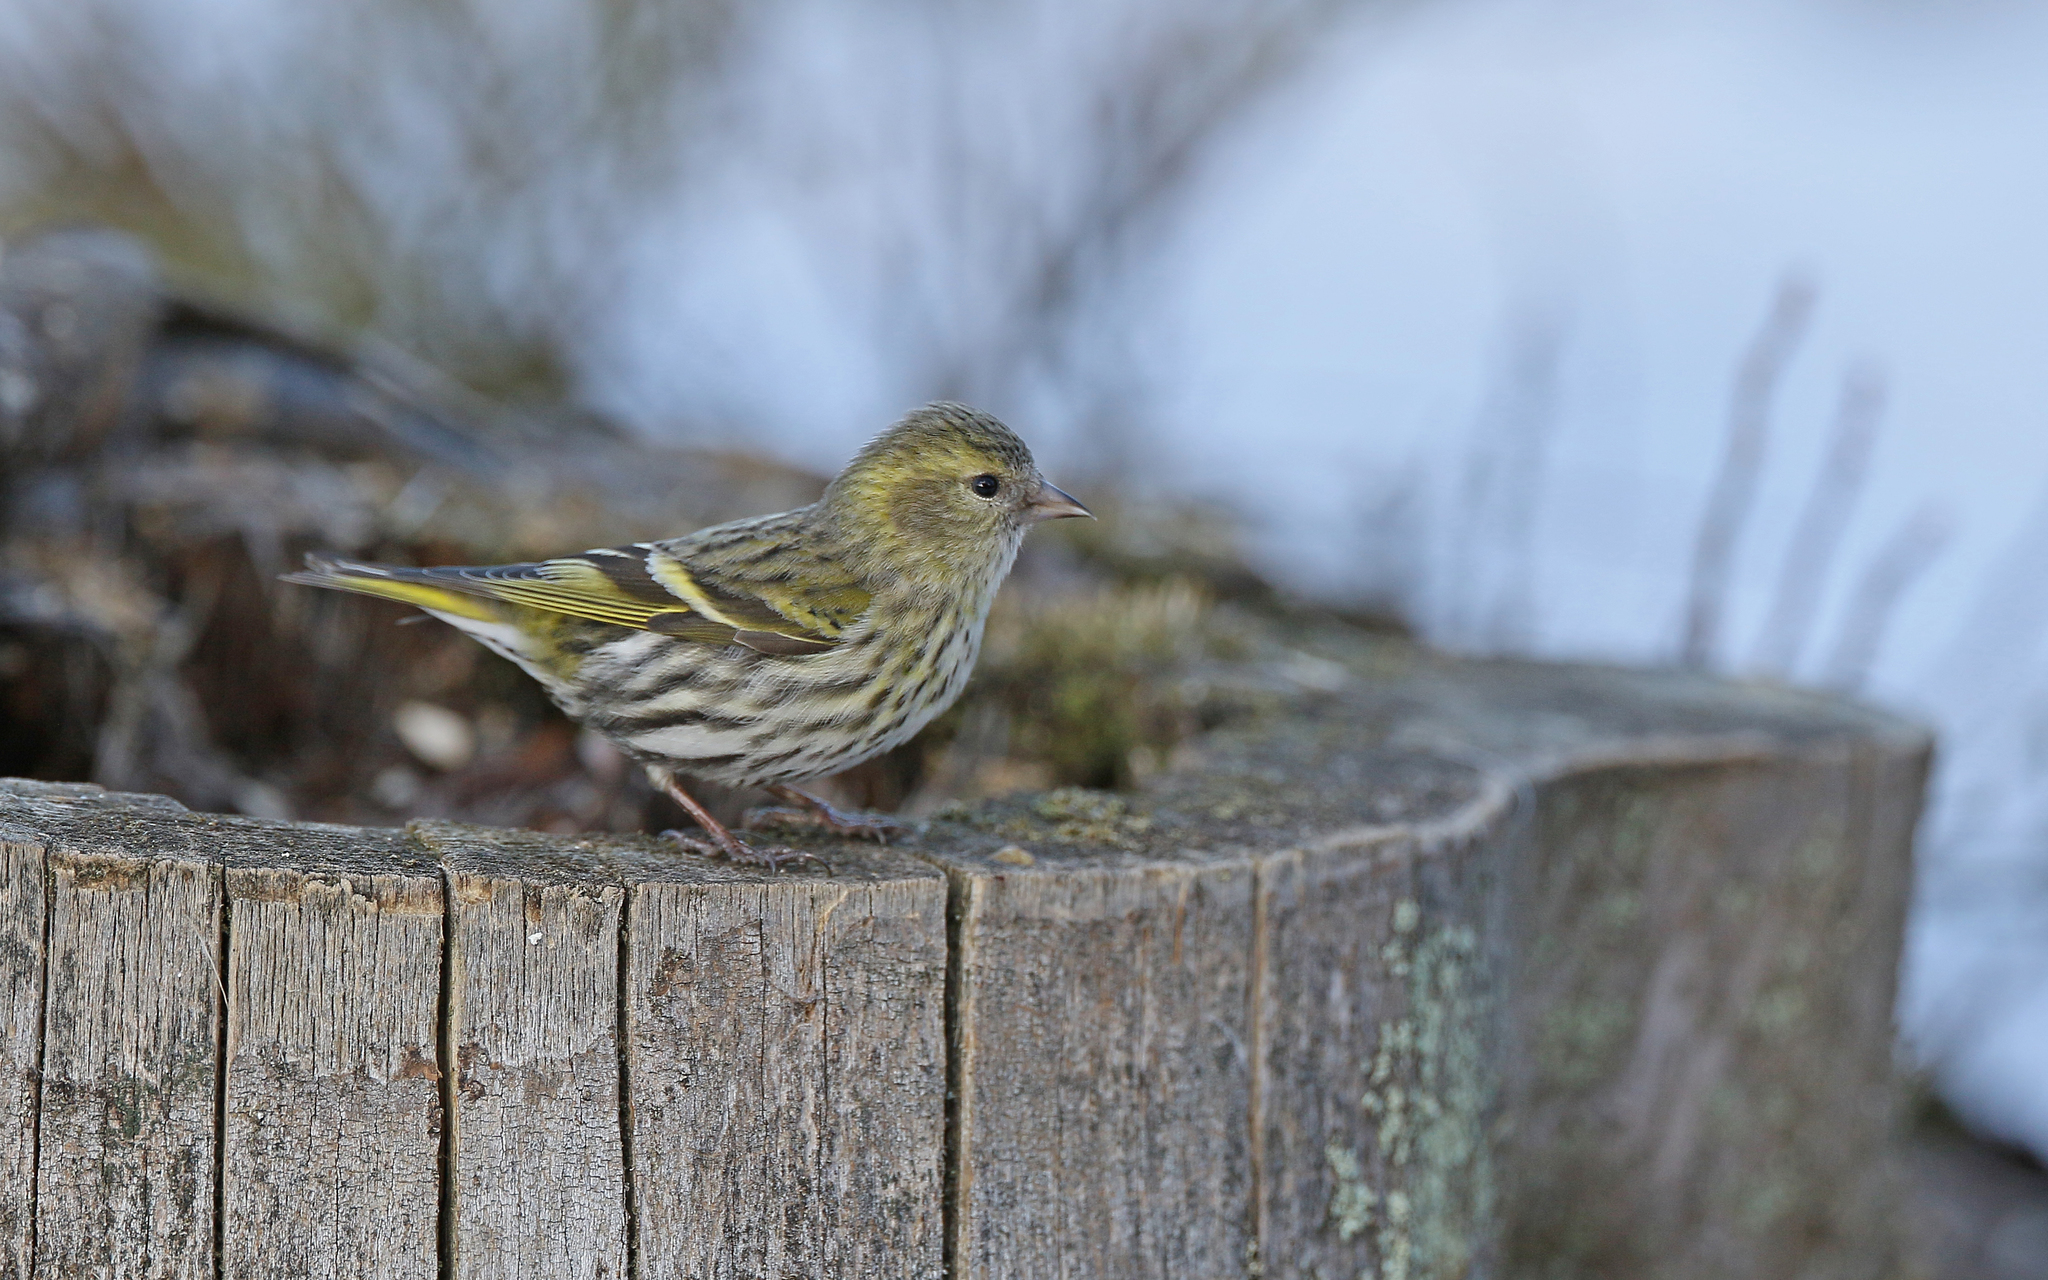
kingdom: Animalia
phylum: Chordata
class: Aves
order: Passeriformes
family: Fringillidae
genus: Spinus
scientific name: Spinus spinus
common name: Eurasian siskin
